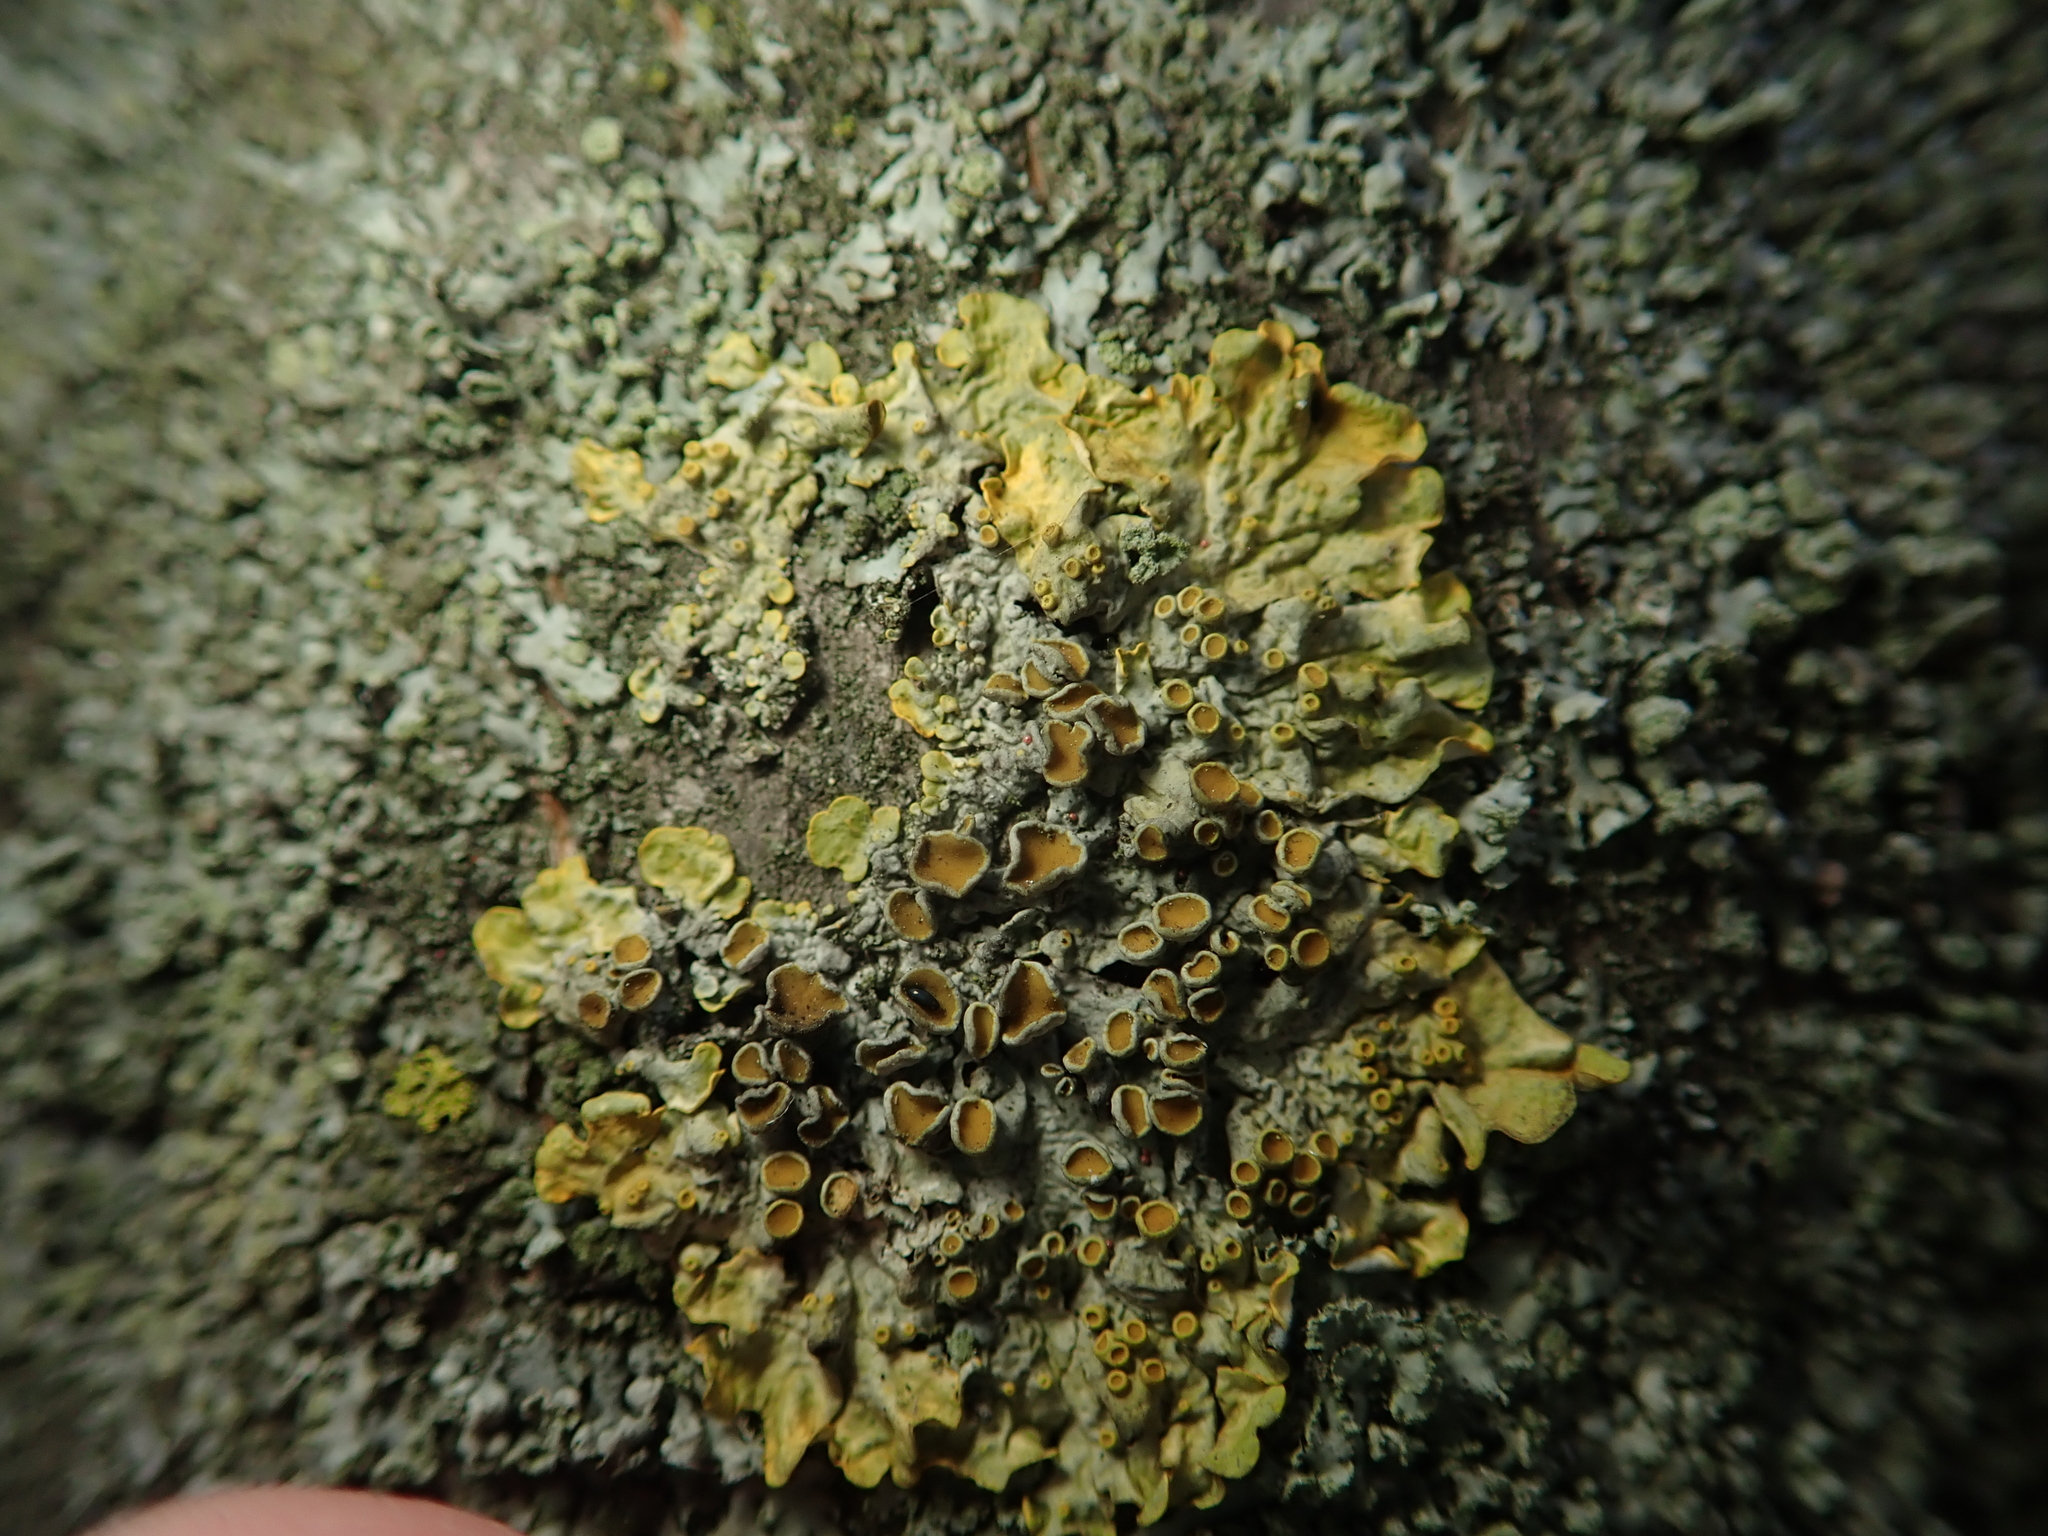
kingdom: Fungi
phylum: Ascomycota
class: Lecanoromycetes
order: Teloschistales
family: Teloschistaceae
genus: Xanthoria
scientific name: Xanthoria parietina
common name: Common orange lichen
